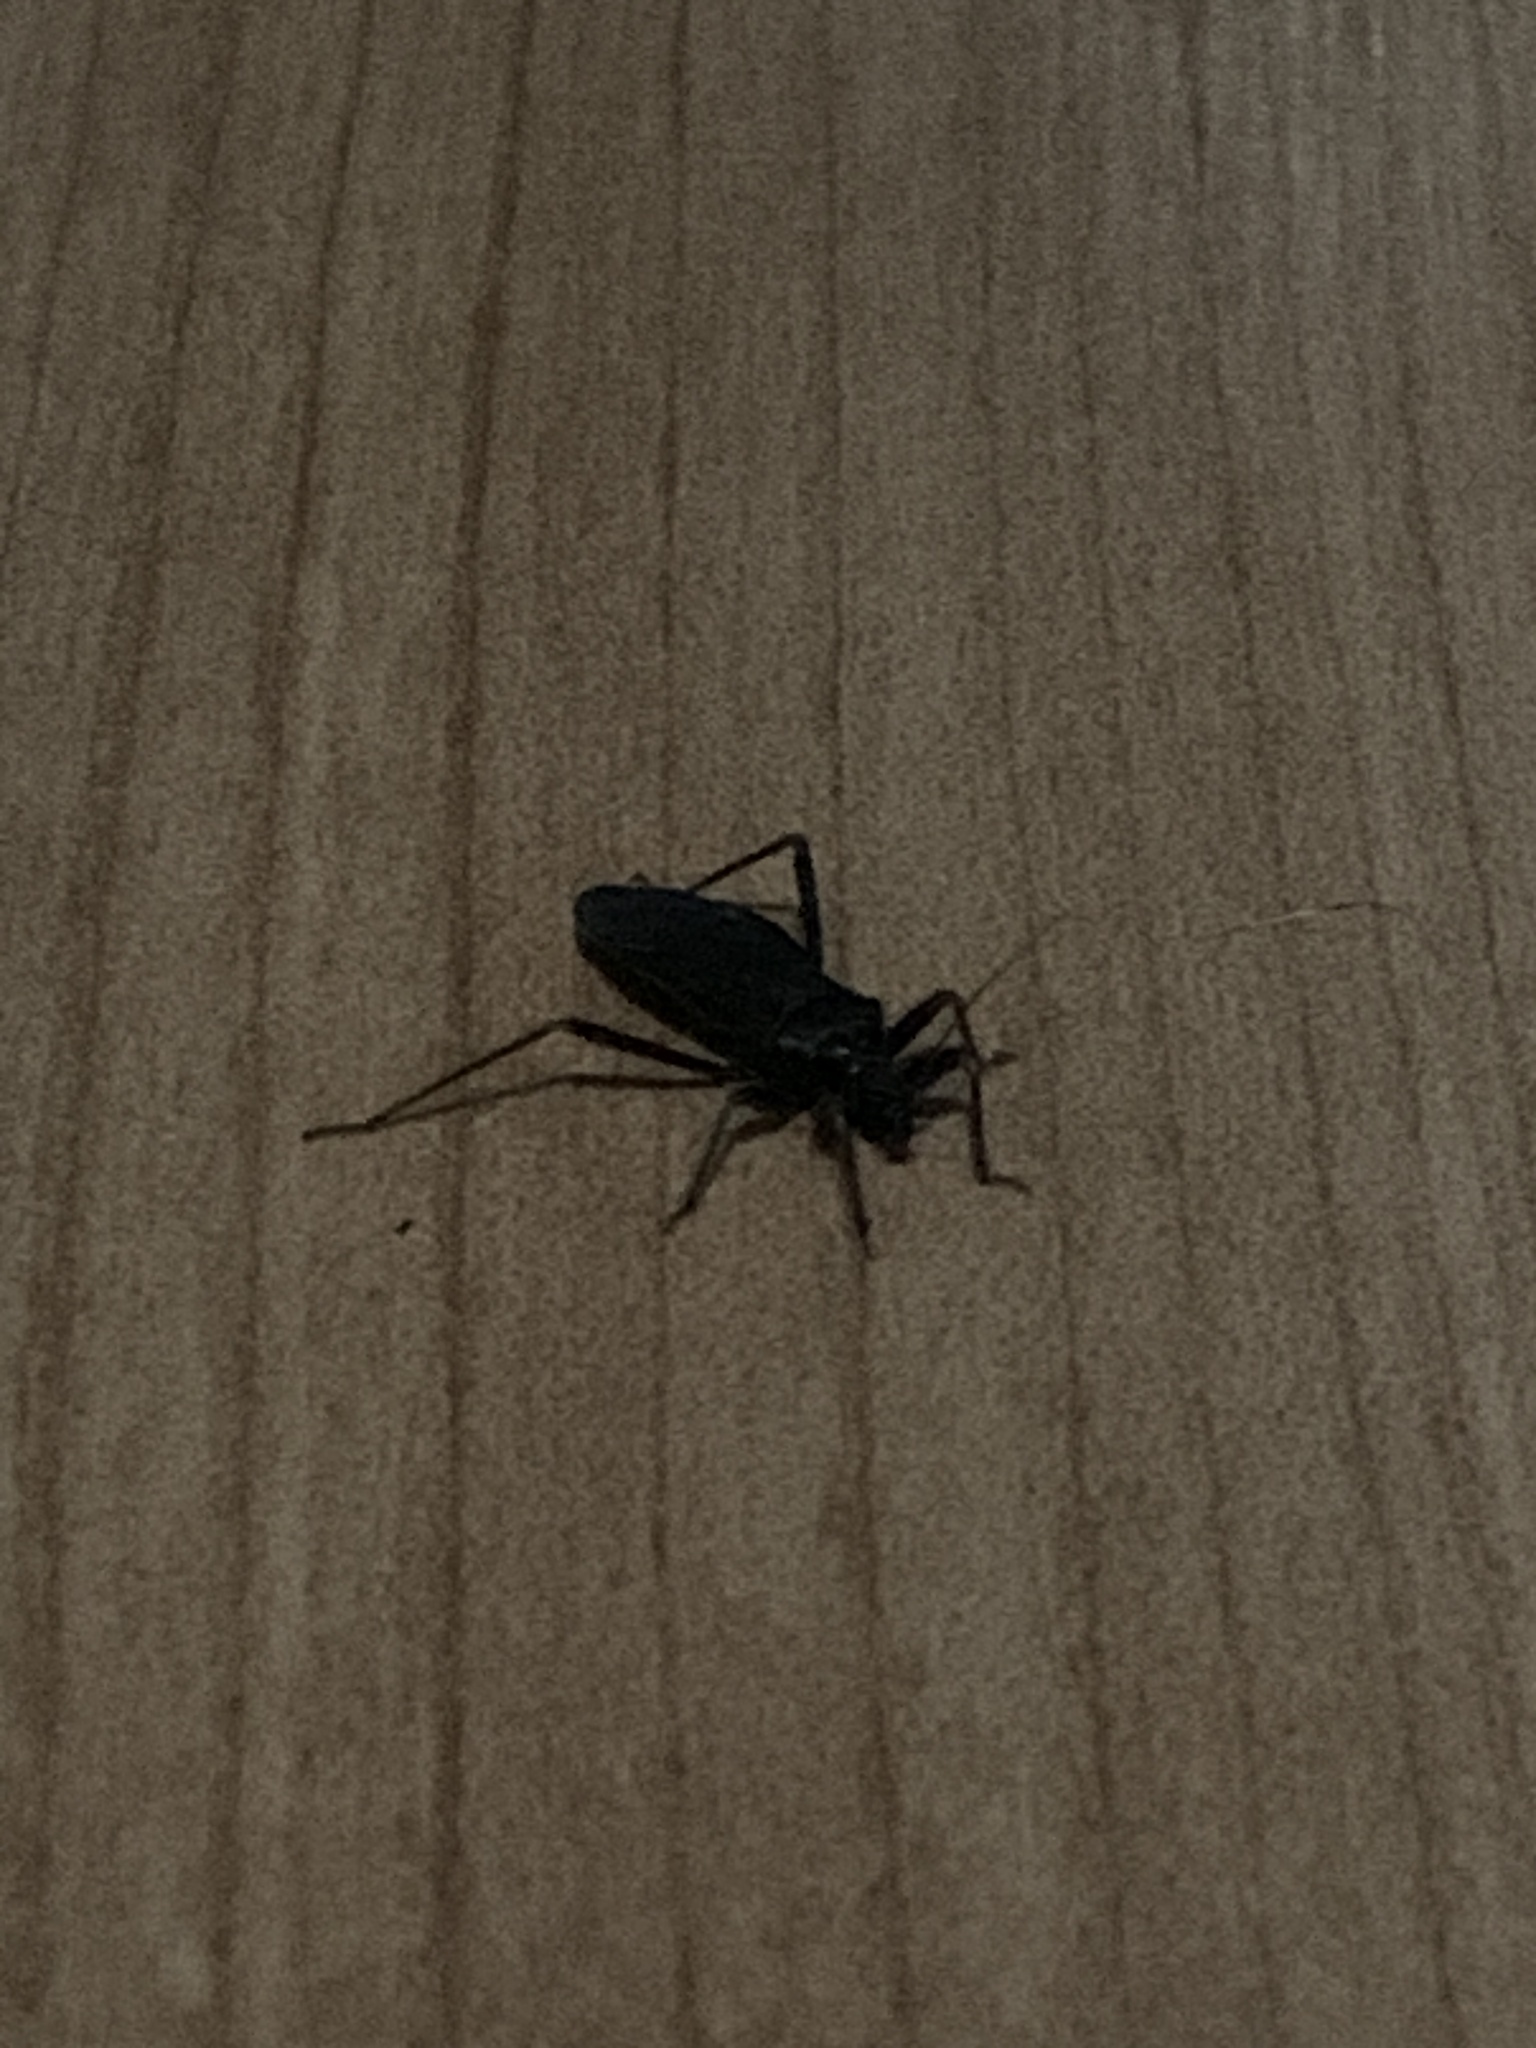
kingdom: Animalia
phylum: Arthropoda
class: Insecta
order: Hemiptera
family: Reduviidae
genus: Reduvius
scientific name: Reduvius personatus
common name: Masked hunter
